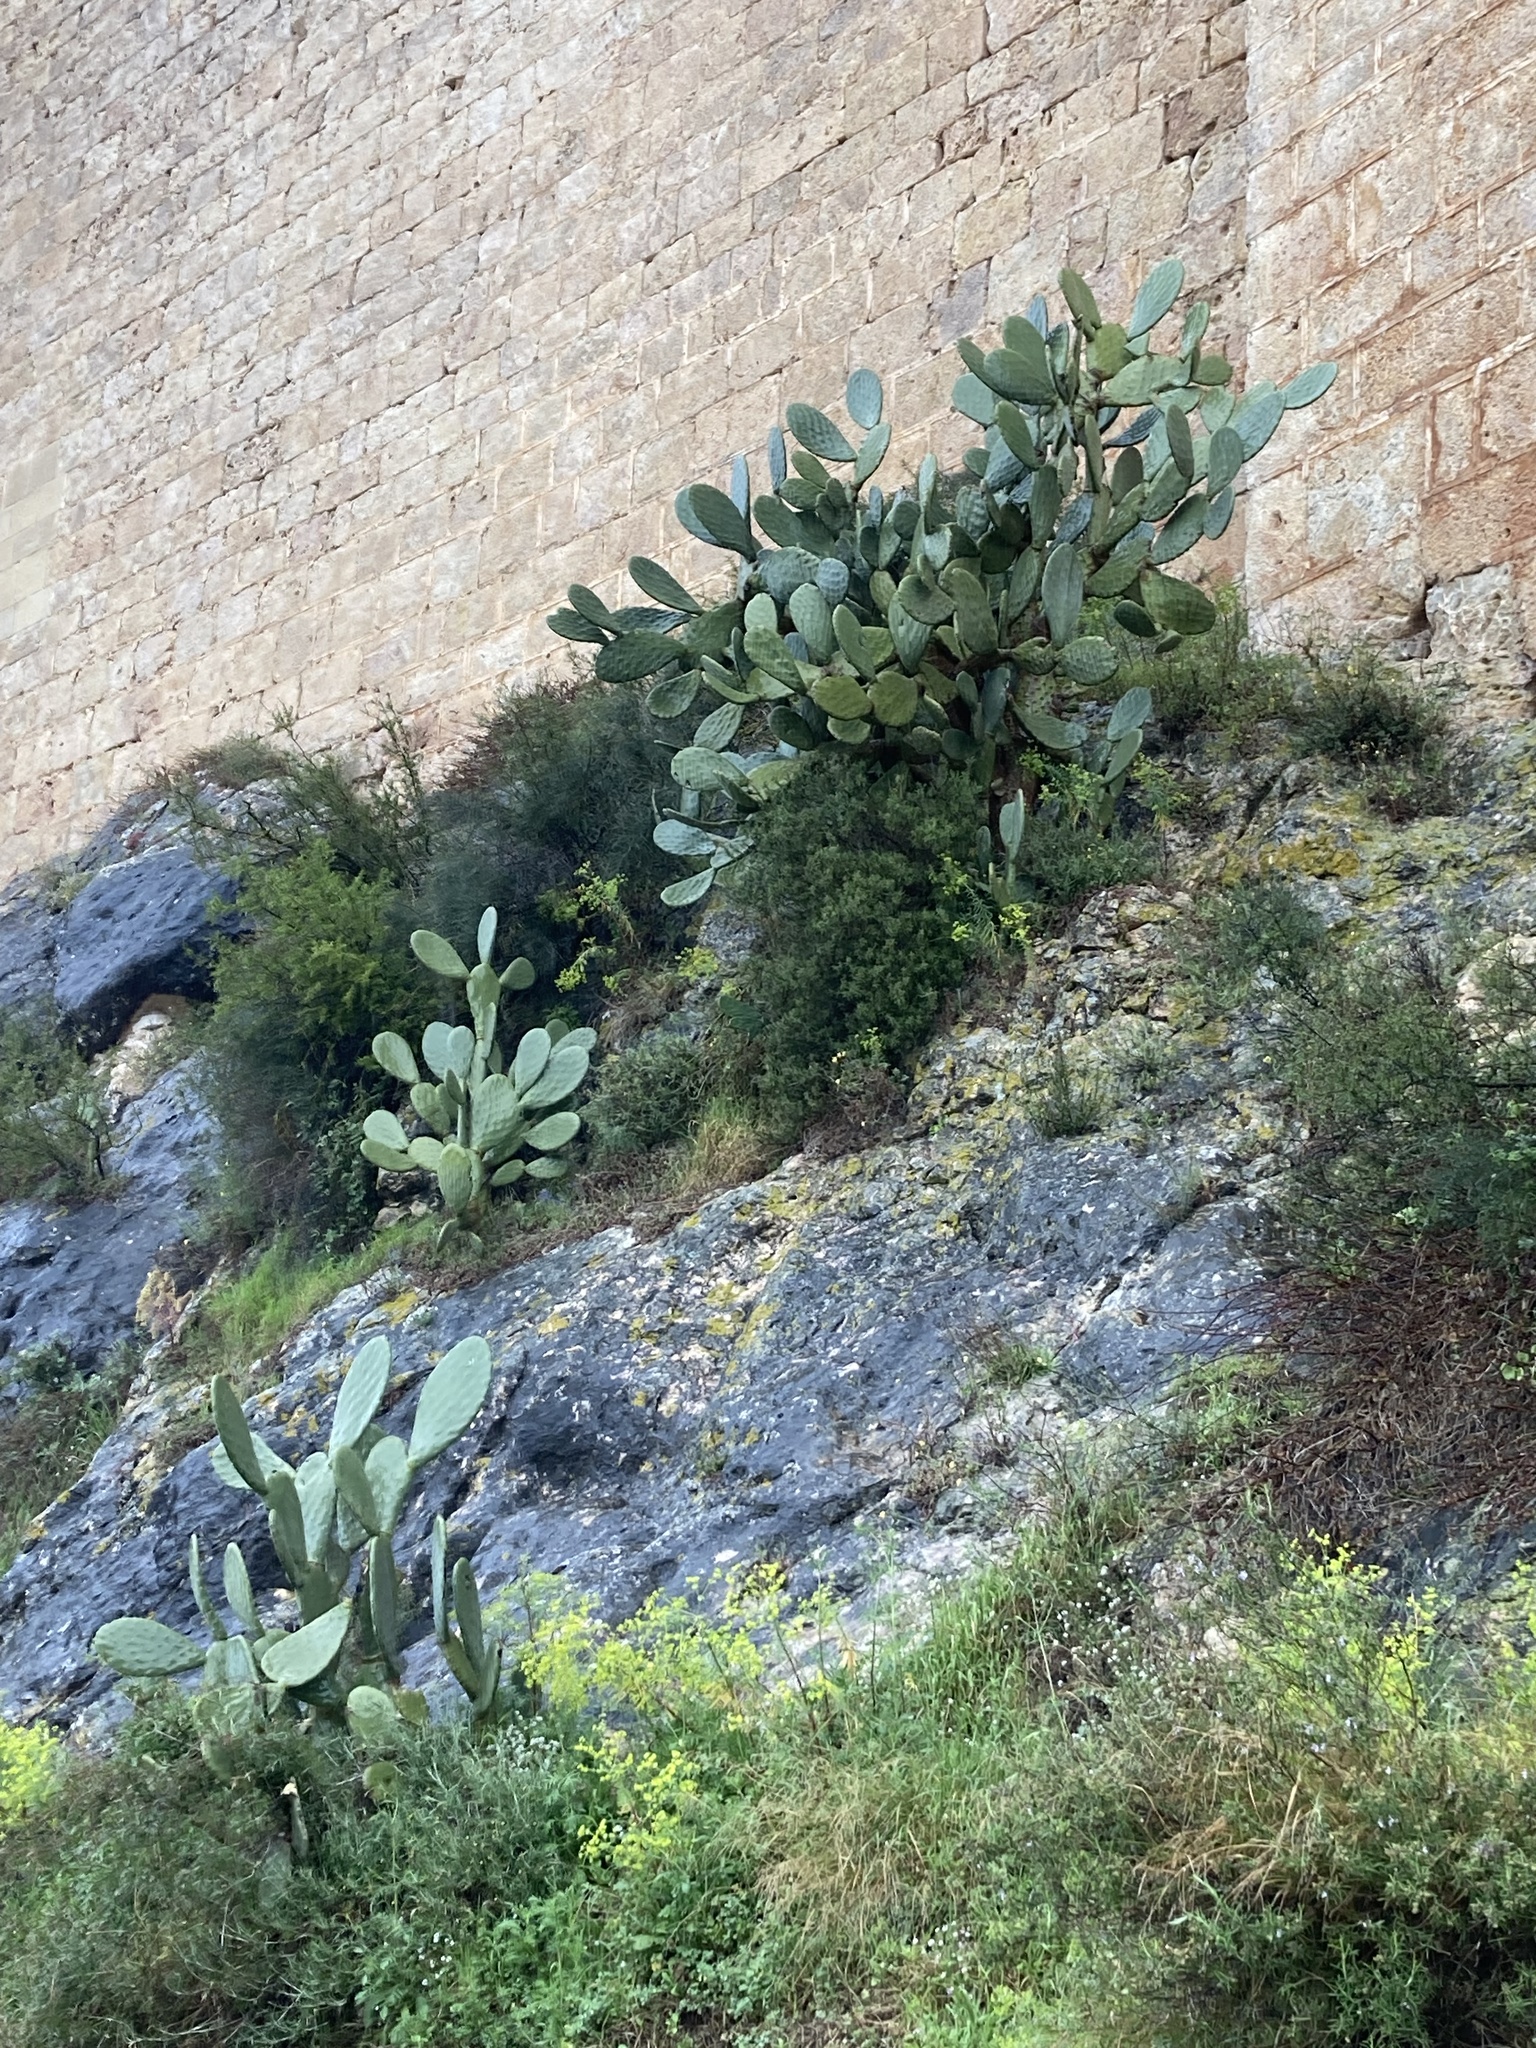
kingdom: Plantae
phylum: Tracheophyta
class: Magnoliopsida
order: Caryophyllales
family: Cactaceae
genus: Opuntia
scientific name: Opuntia ficus-indica
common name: Barbary fig
